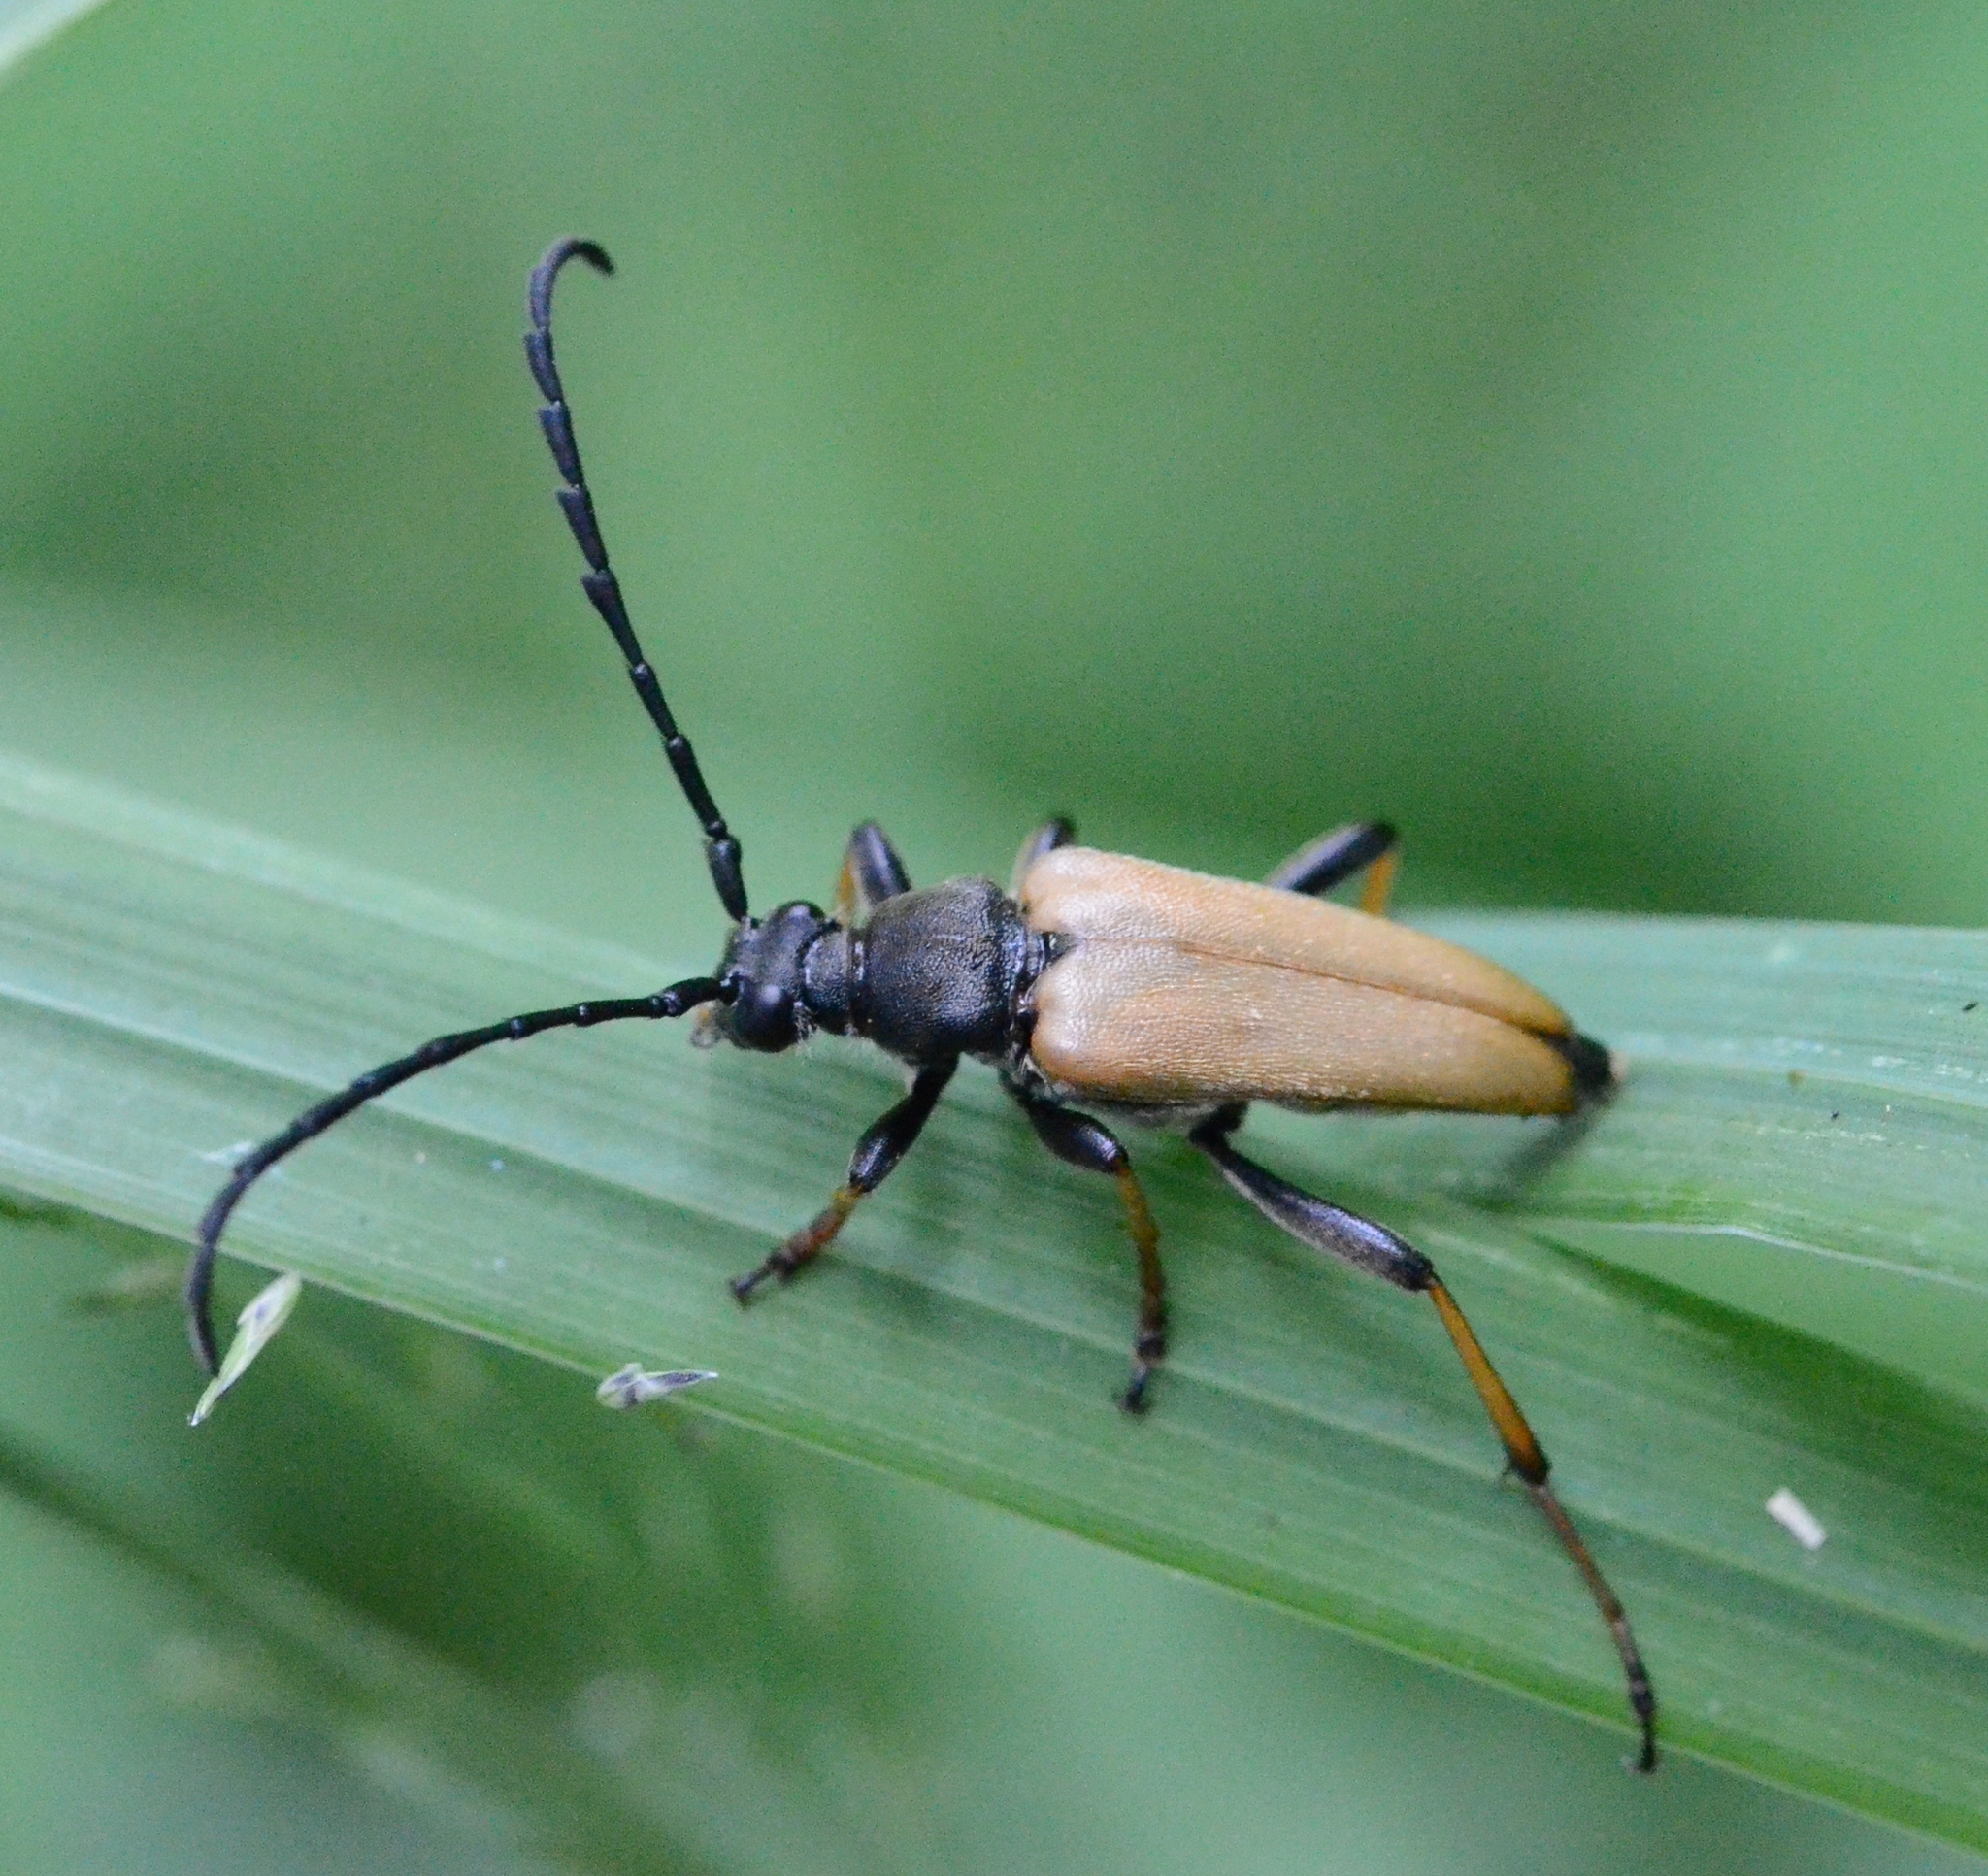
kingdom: Animalia
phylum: Arthropoda
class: Insecta
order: Coleoptera
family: Cerambycidae
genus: Stictoleptura
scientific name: Stictoleptura rubra
